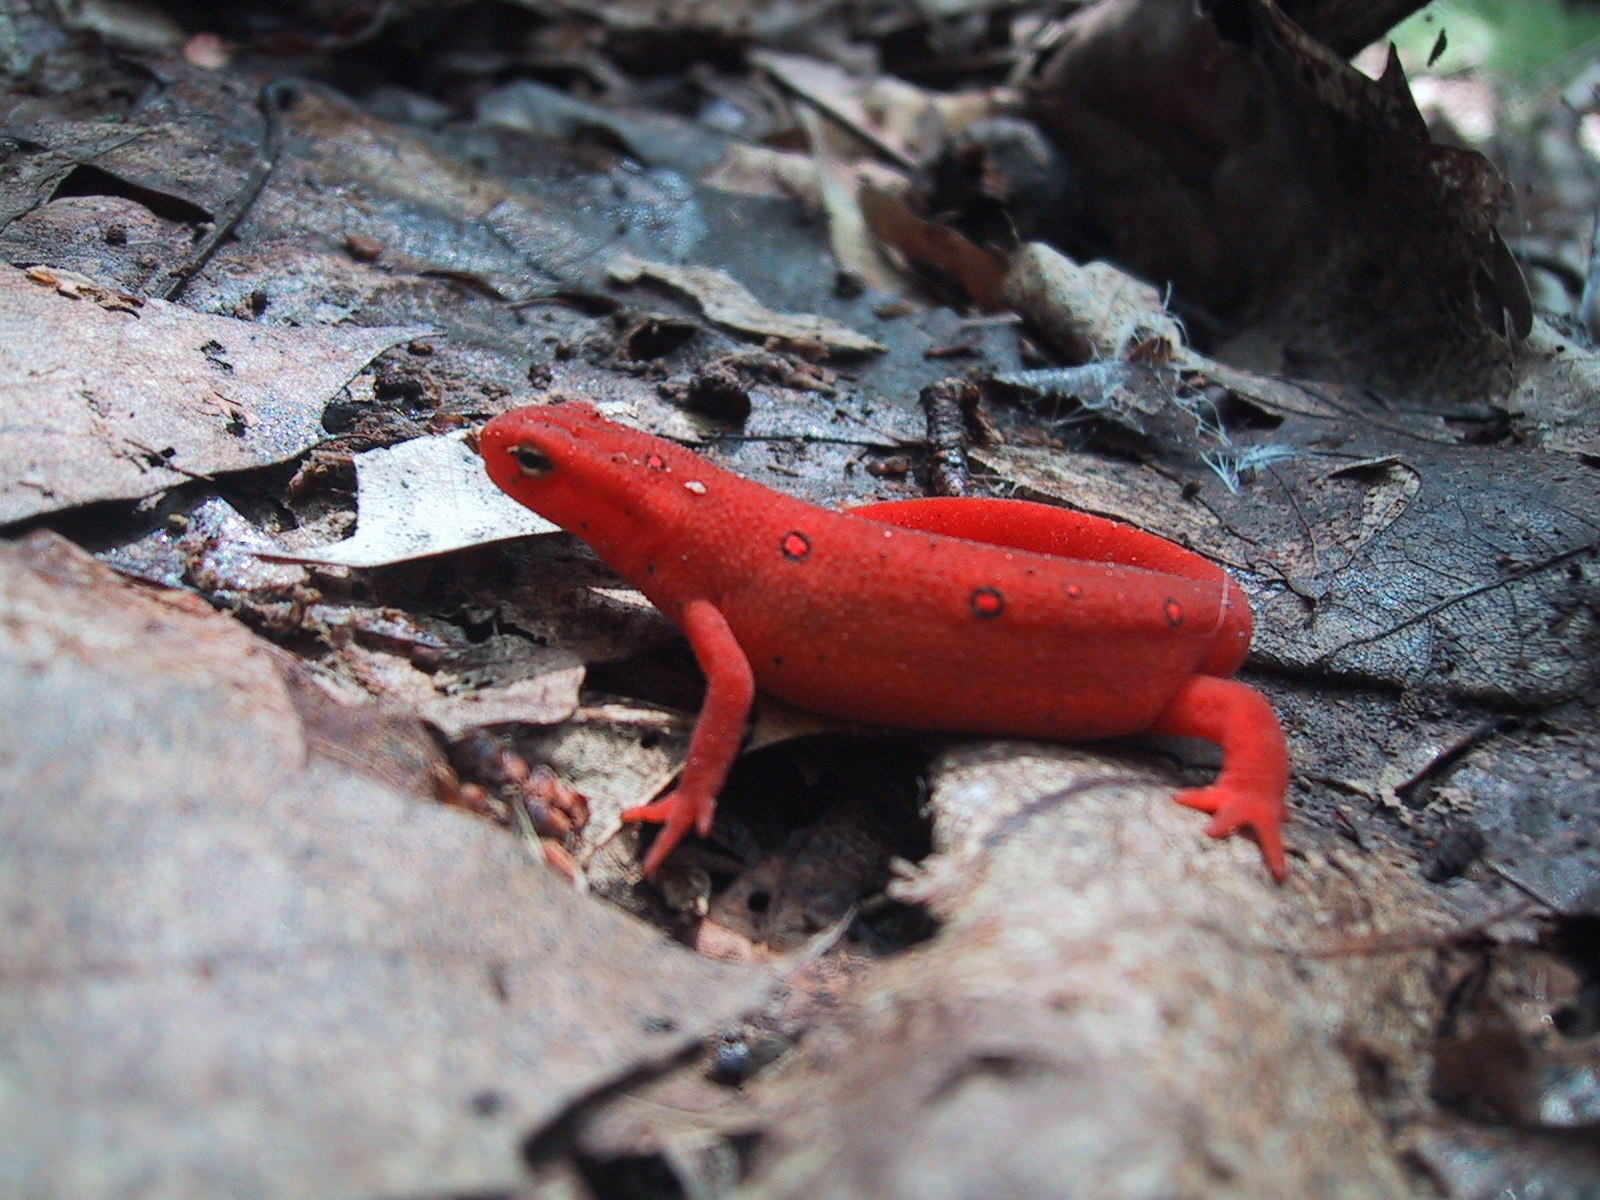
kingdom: Animalia
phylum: Chordata
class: Amphibia
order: Caudata
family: Salamandridae
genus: Notophthalmus
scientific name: Notophthalmus viridescens
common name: Eastern newt
